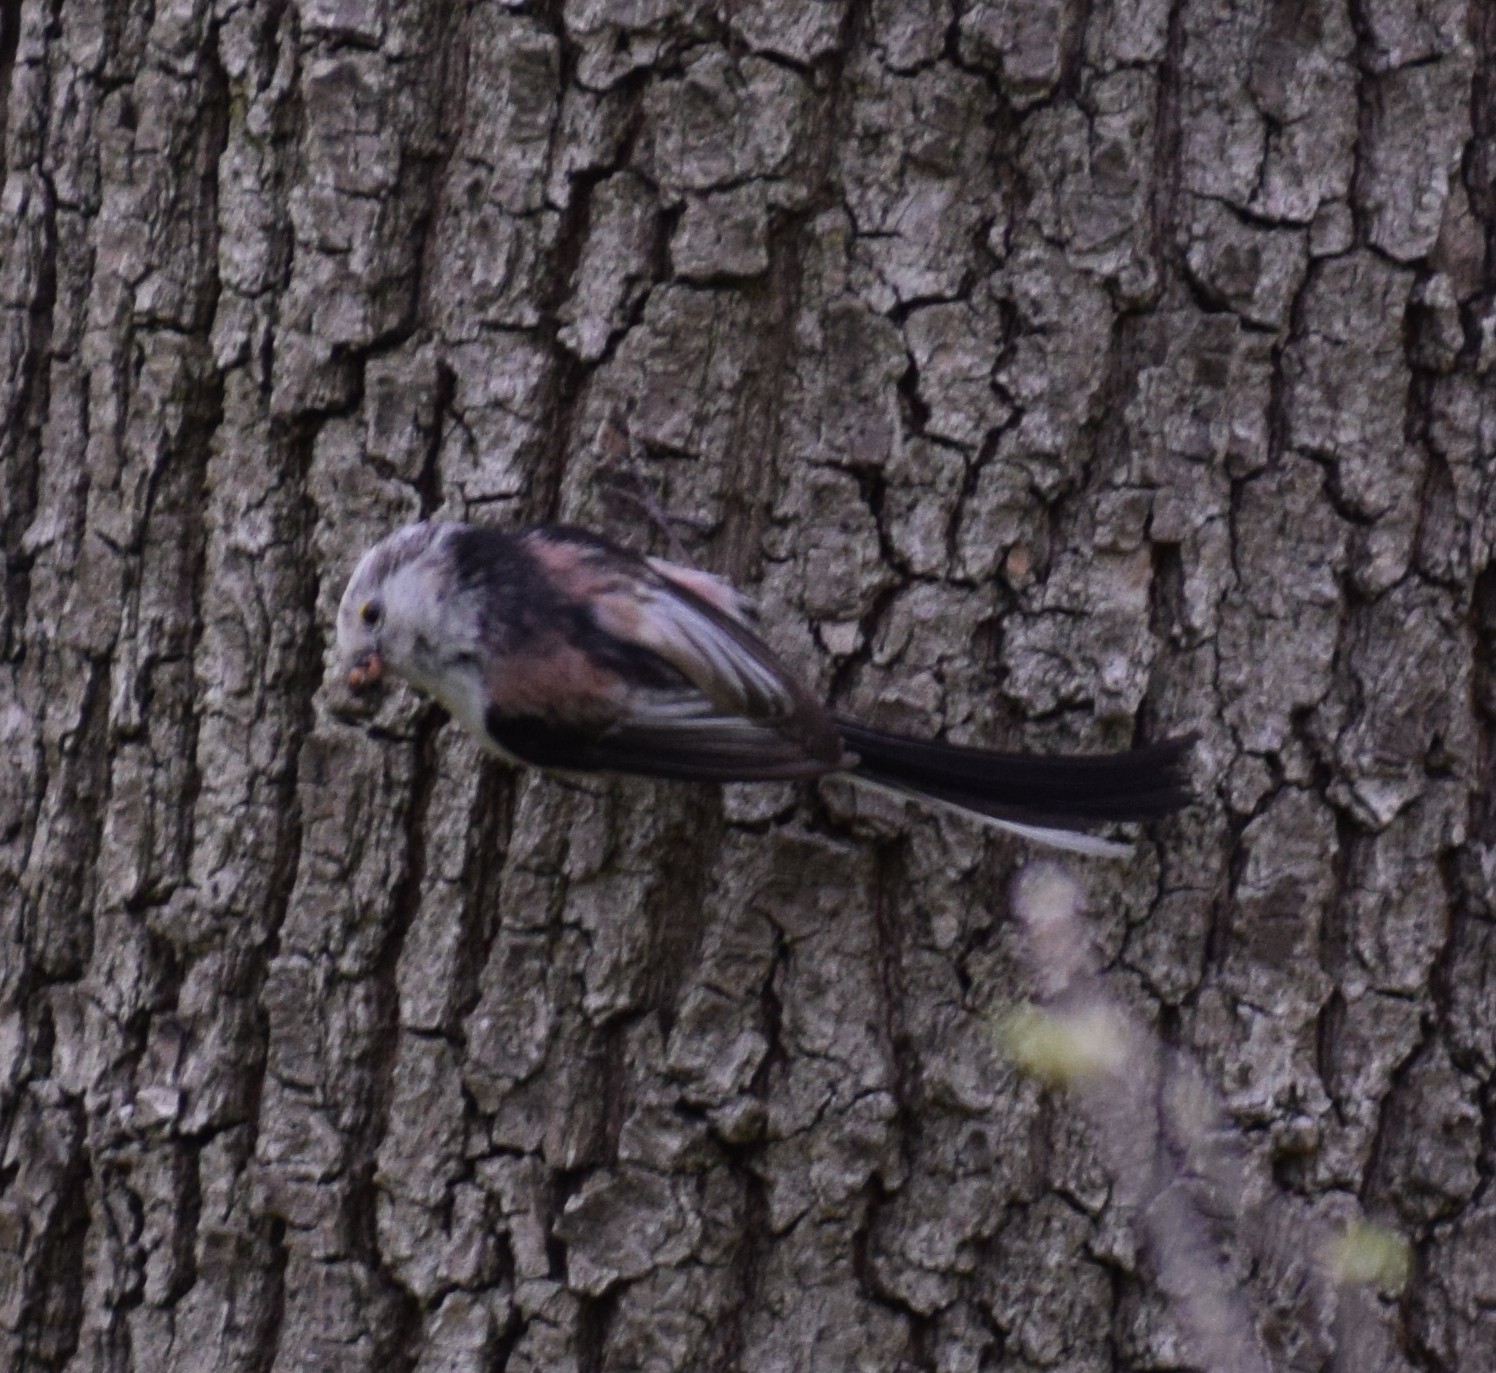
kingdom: Animalia
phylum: Chordata
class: Aves
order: Passeriformes
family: Aegithalidae
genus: Aegithalos
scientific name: Aegithalos caudatus
